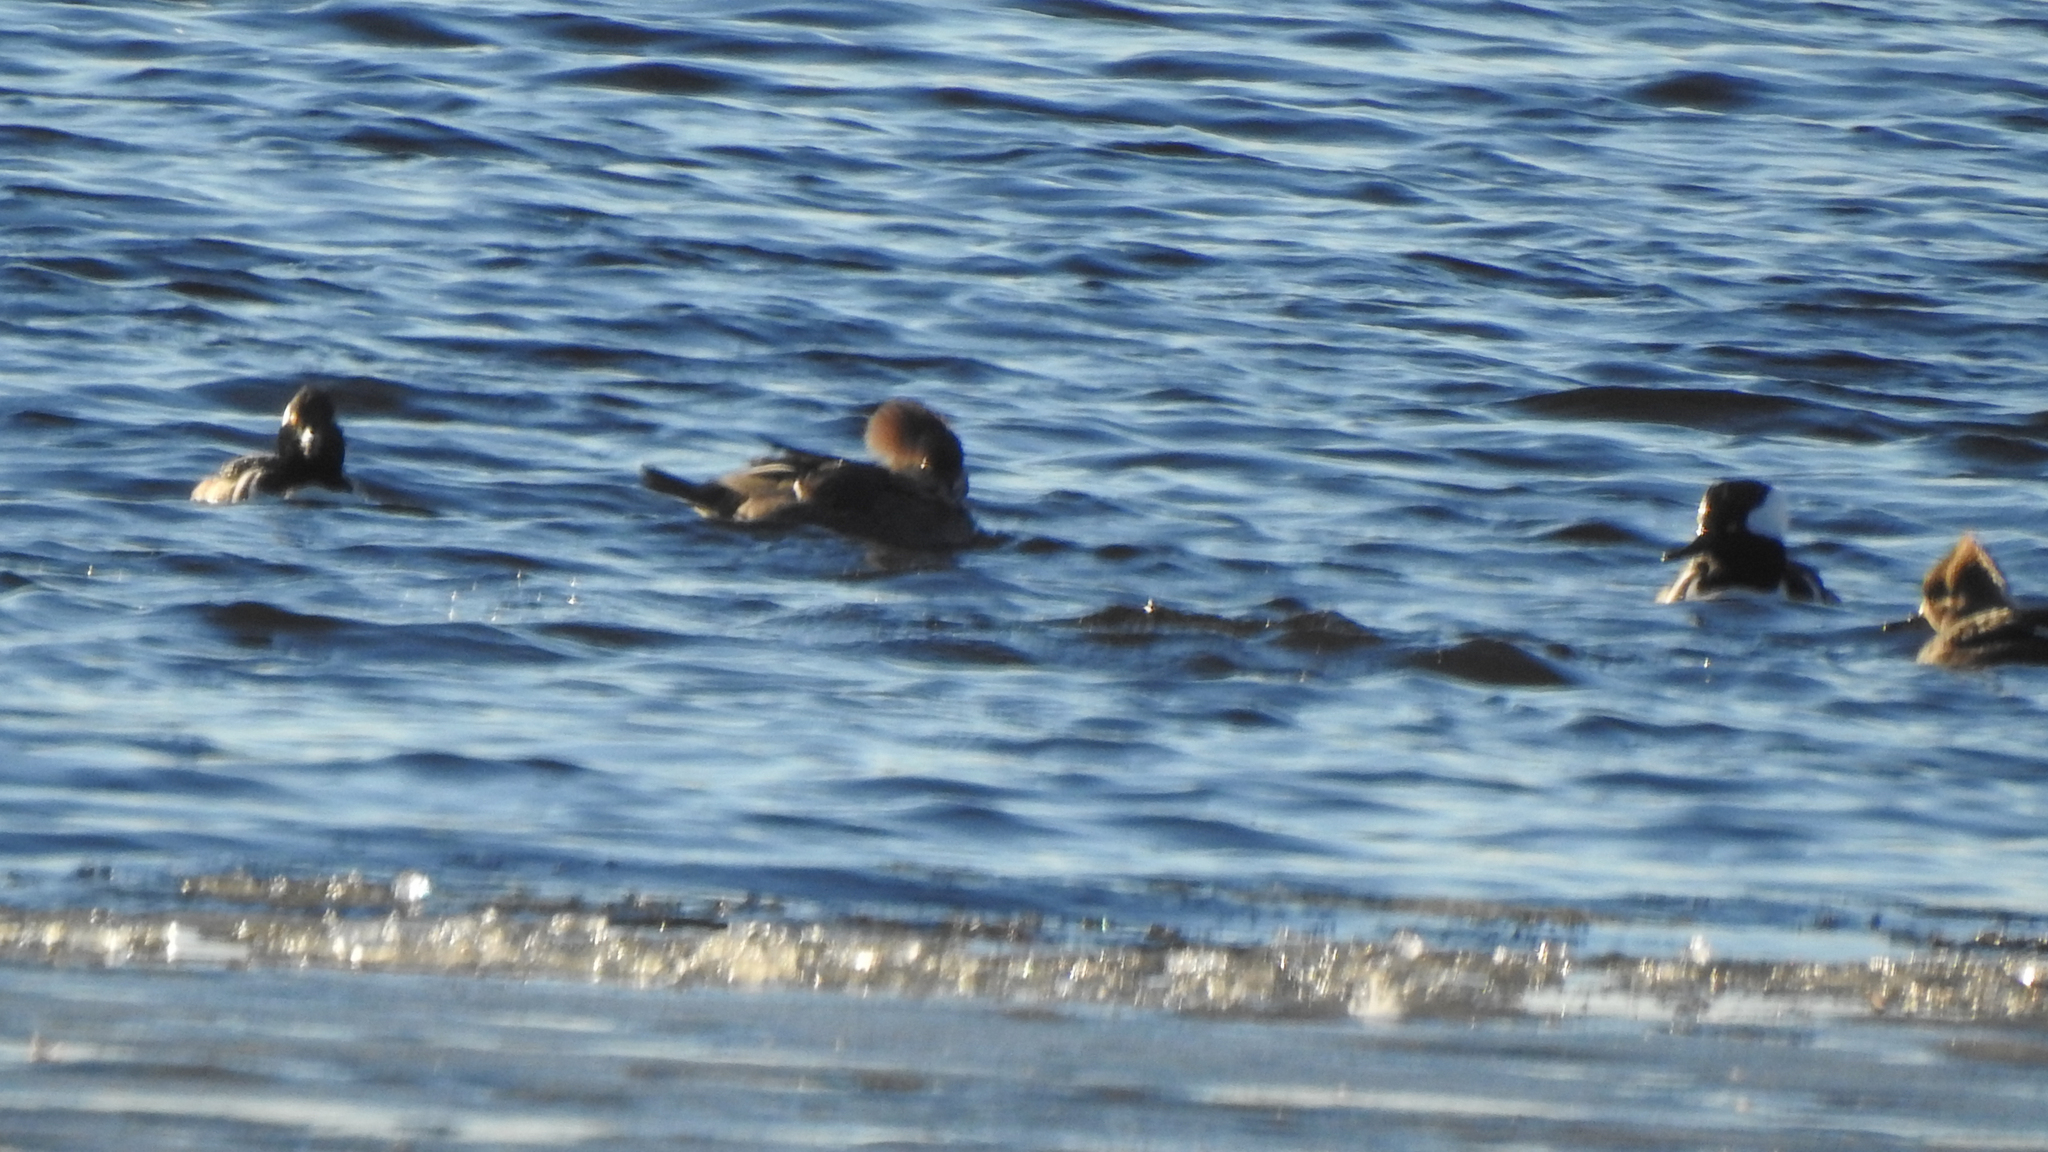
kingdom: Animalia
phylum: Chordata
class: Aves
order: Anseriformes
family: Anatidae
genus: Lophodytes
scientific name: Lophodytes cucullatus
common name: Hooded merganser
